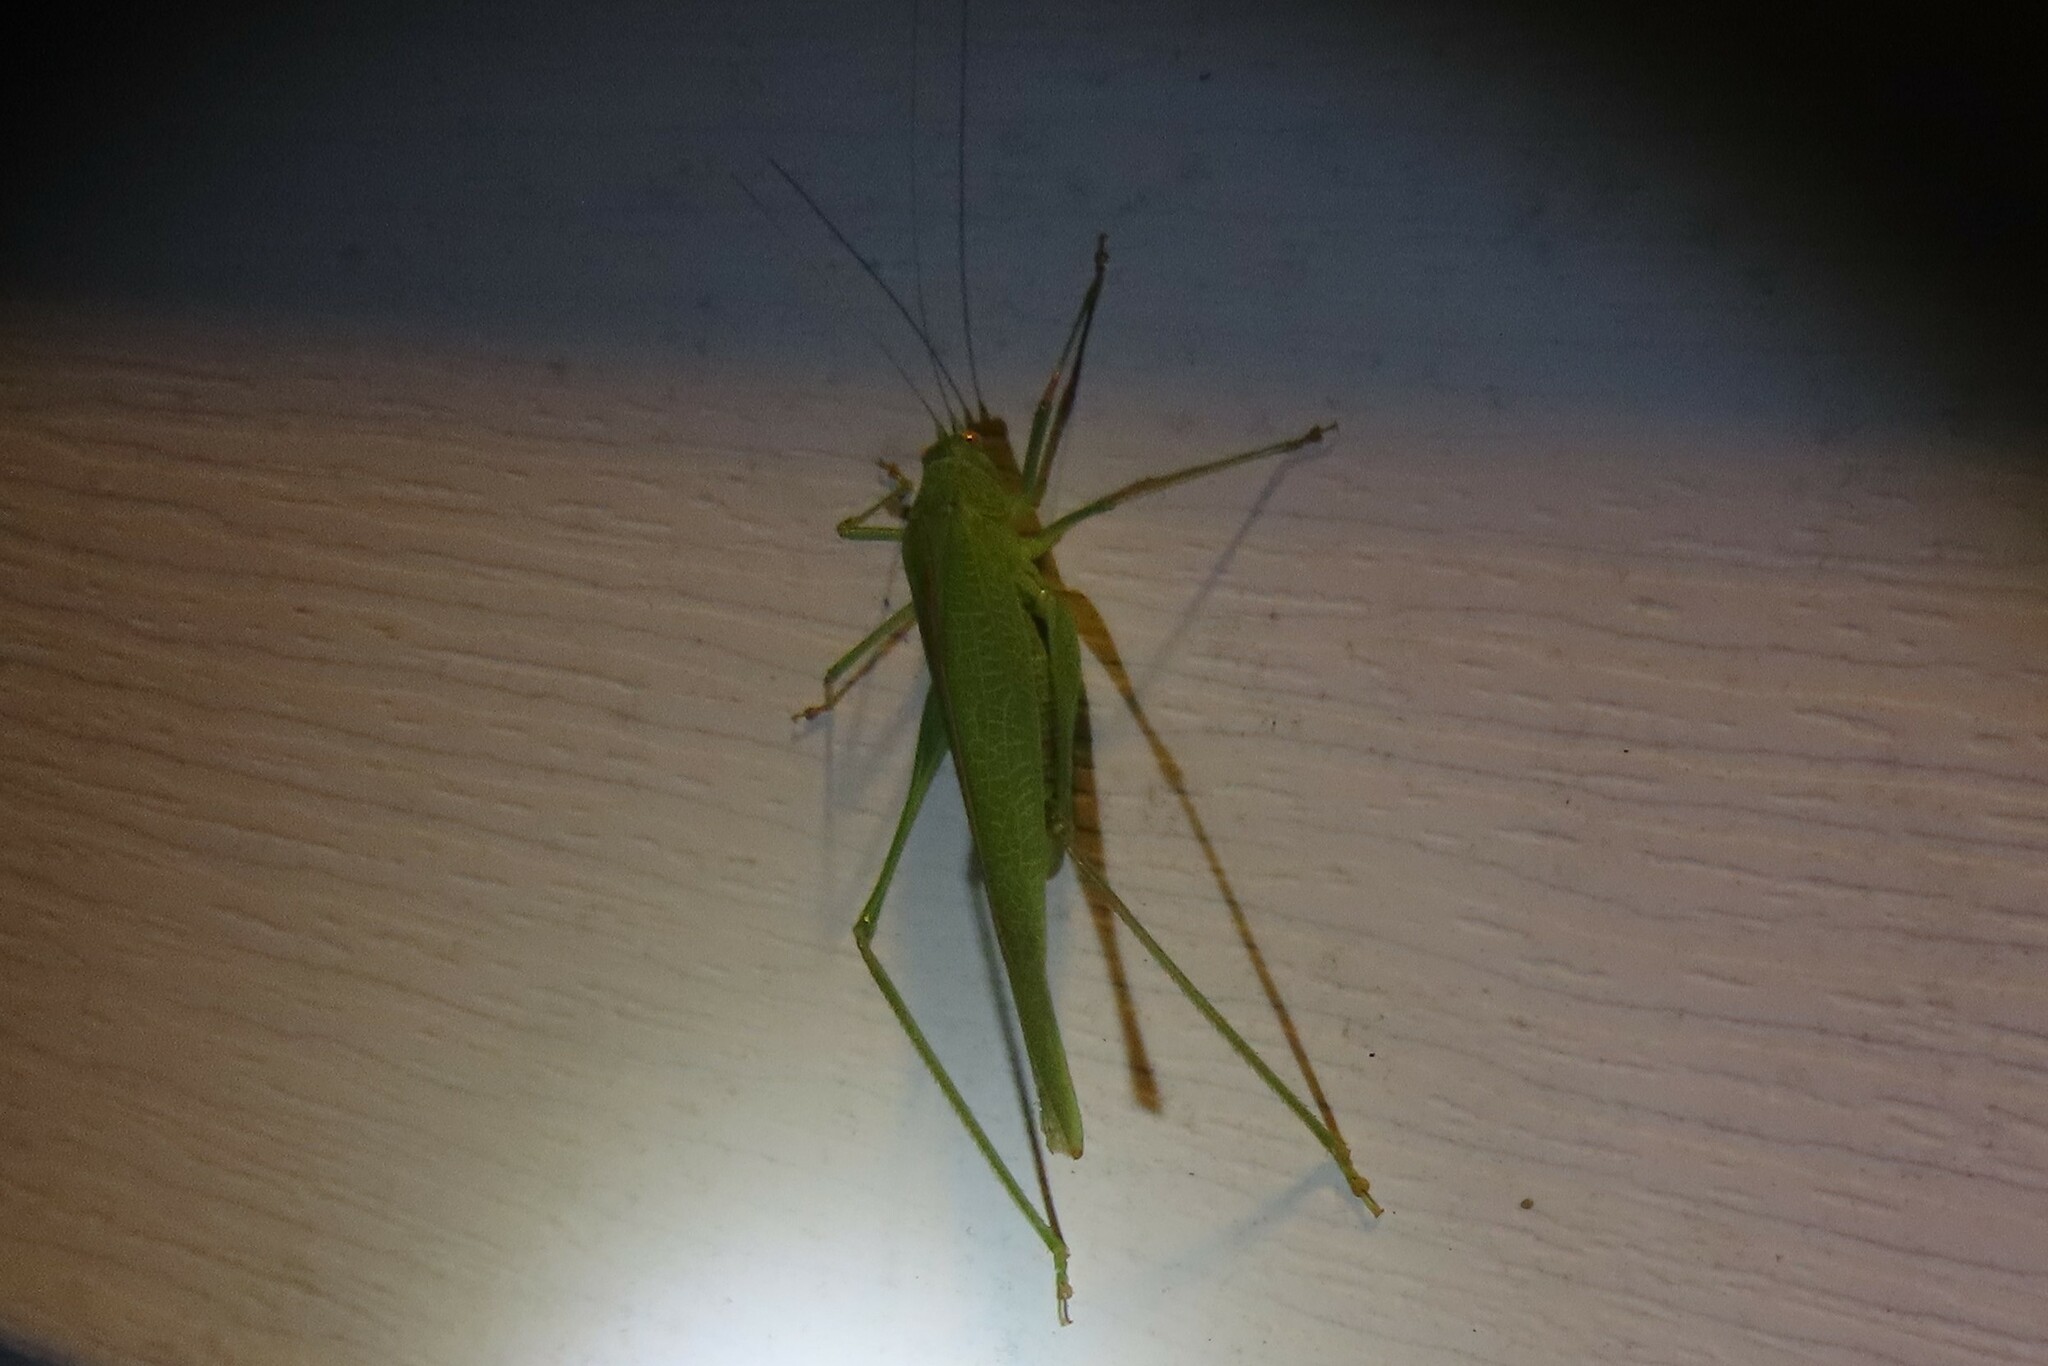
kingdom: Animalia
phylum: Arthropoda
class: Insecta
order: Orthoptera
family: Tettigoniidae
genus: Phaneroptera
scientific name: Phaneroptera nana
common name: Southern sickle bush-cricket
